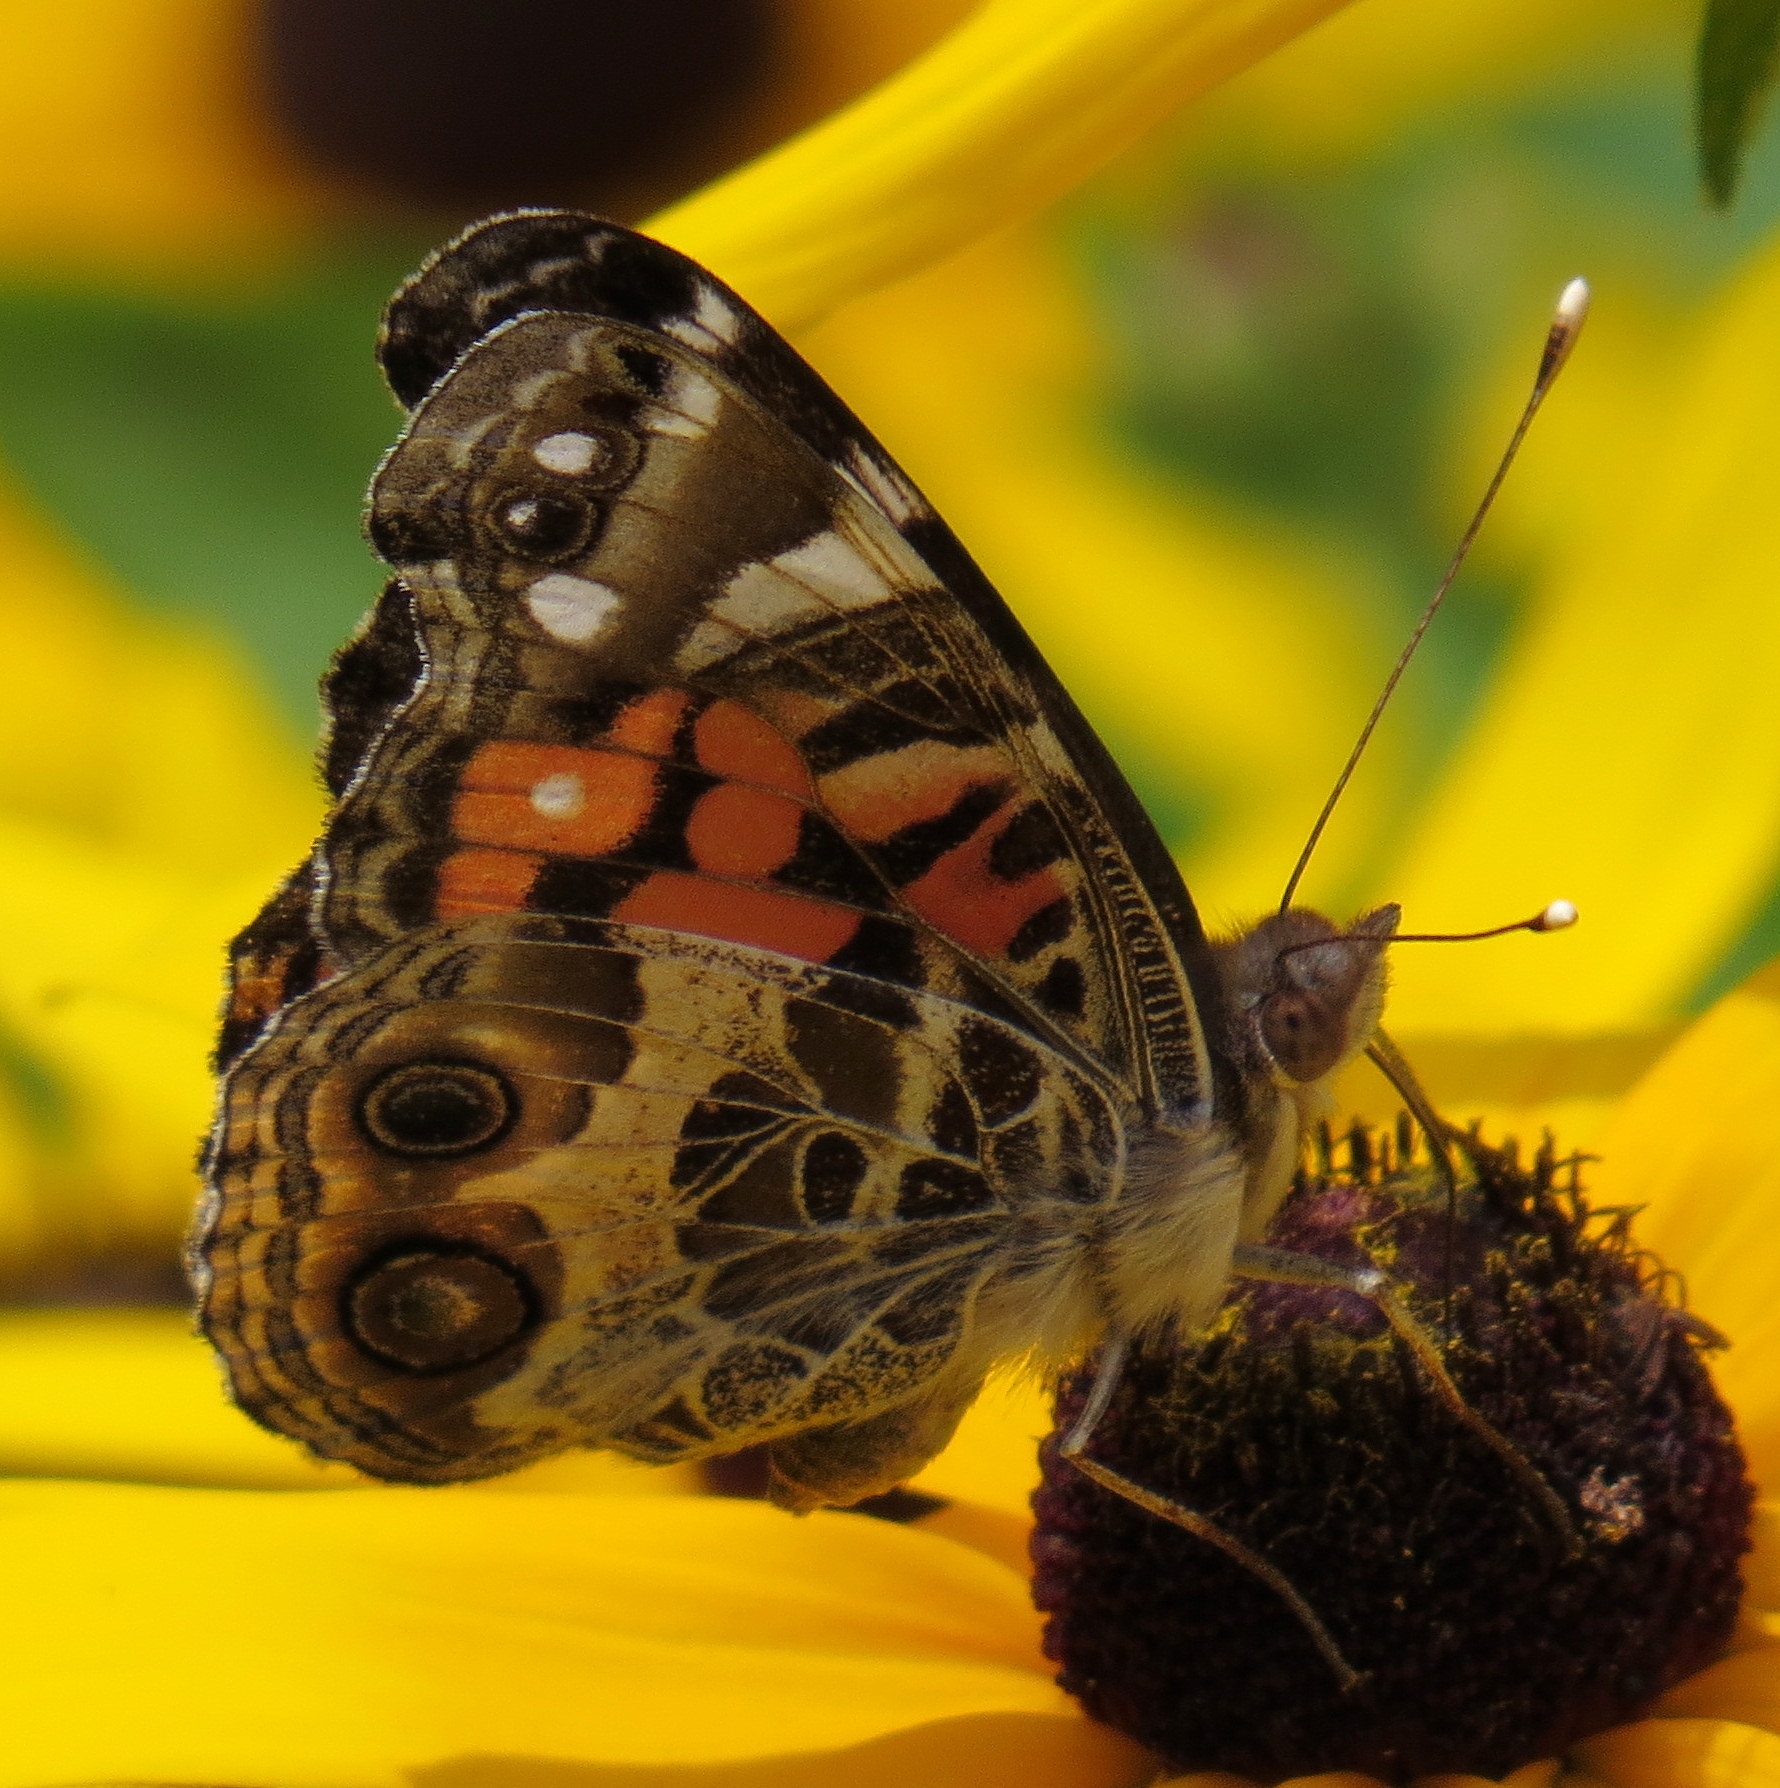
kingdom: Animalia
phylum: Arthropoda
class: Insecta
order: Lepidoptera
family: Nymphalidae
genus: Vanessa
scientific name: Vanessa virginiensis
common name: American lady
